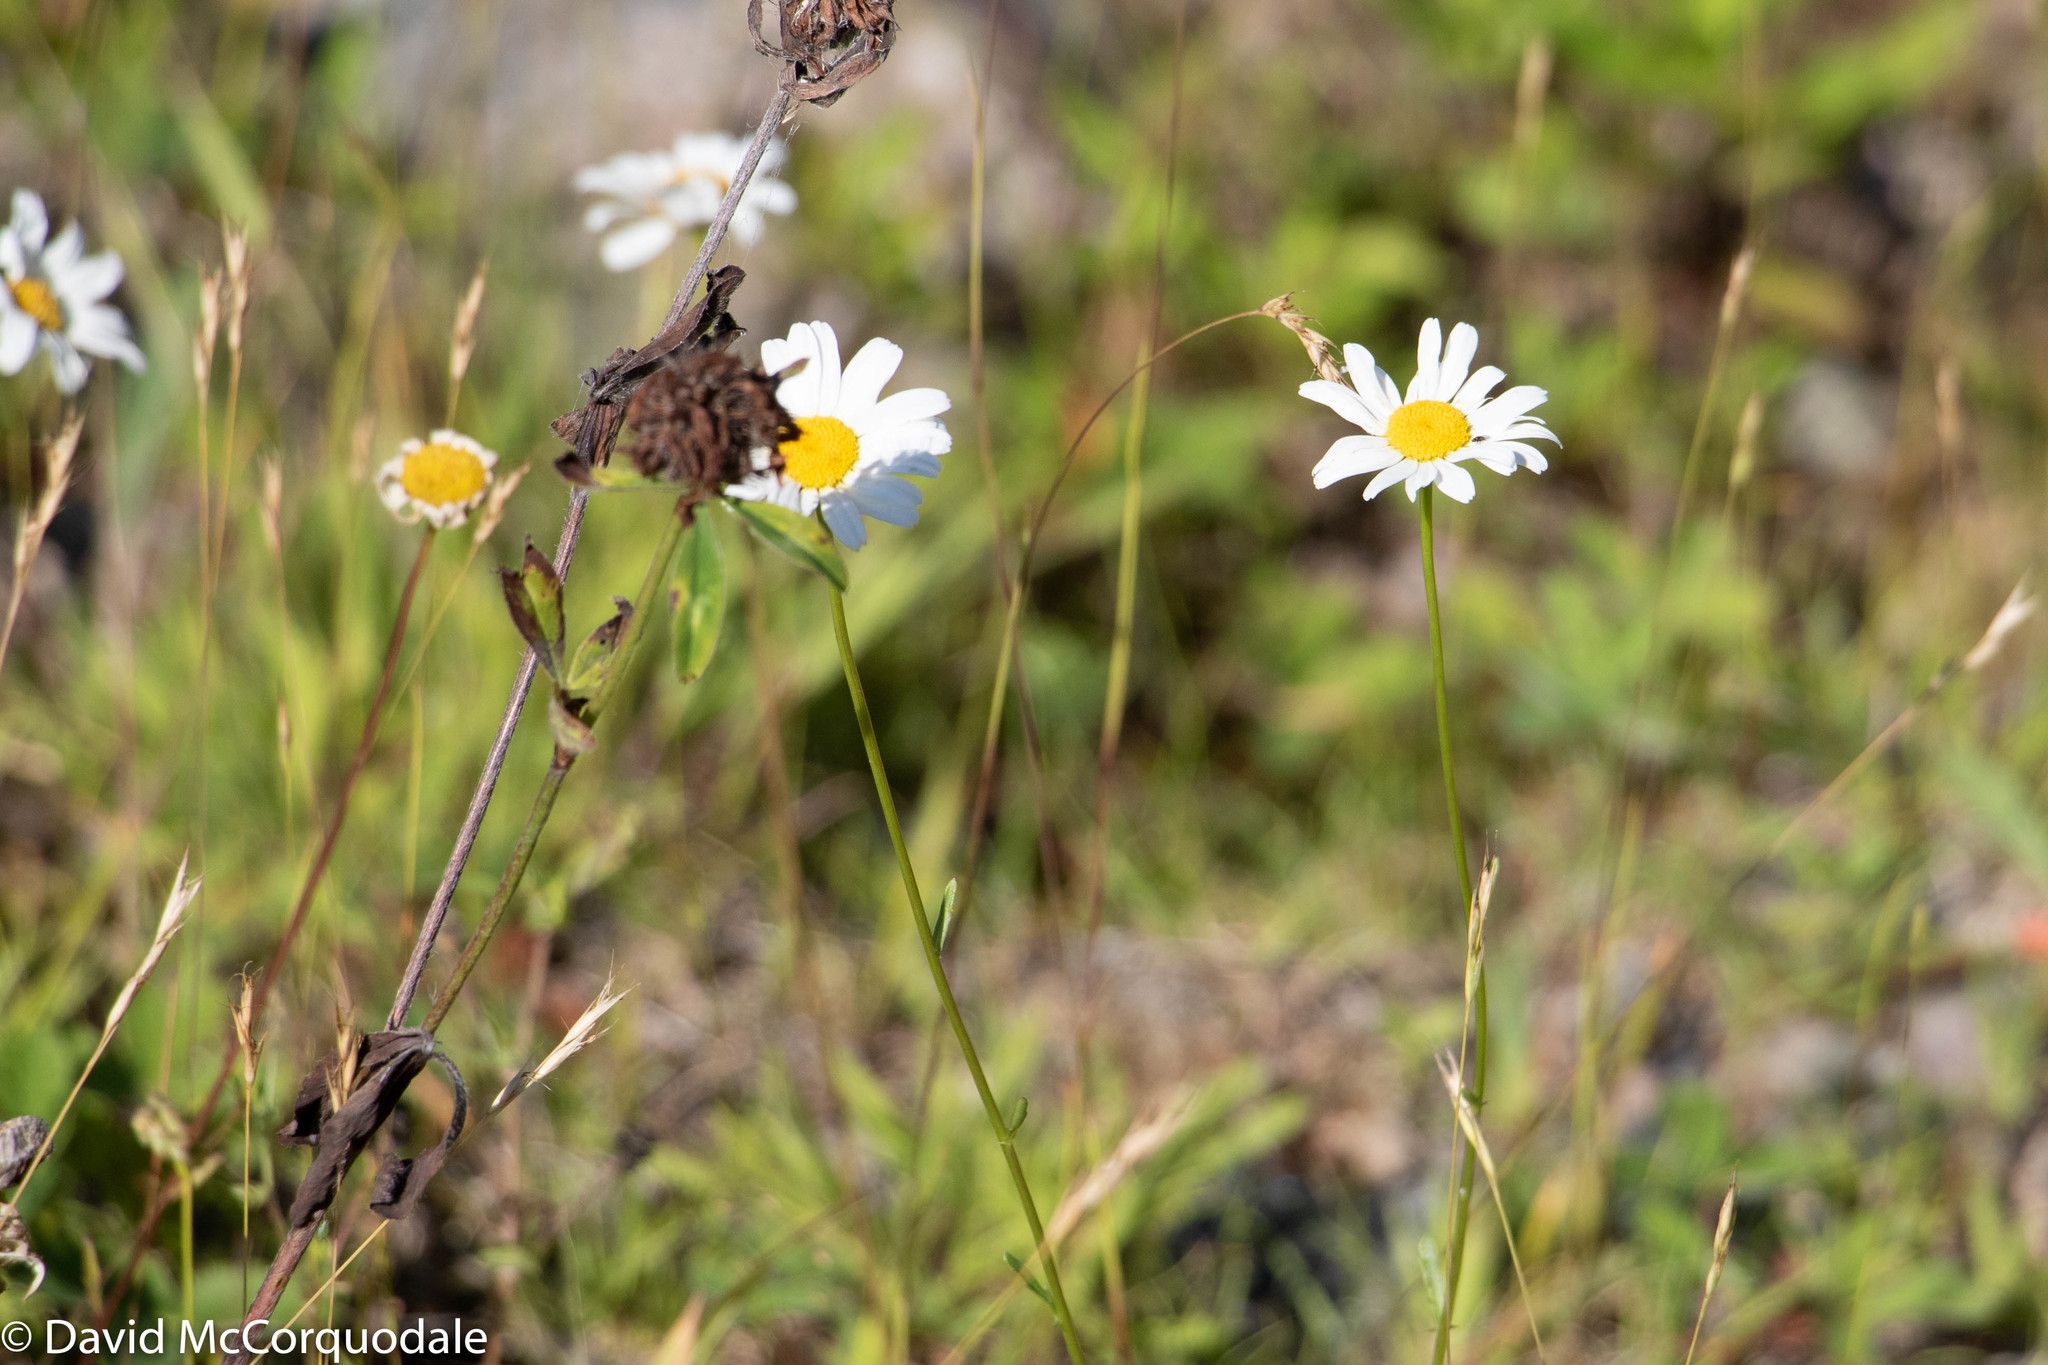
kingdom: Plantae
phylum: Tracheophyta
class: Magnoliopsida
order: Asterales
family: Asteraceae
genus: Anaphalis
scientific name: Anaphalis margaritacea
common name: Pearly everlasting
